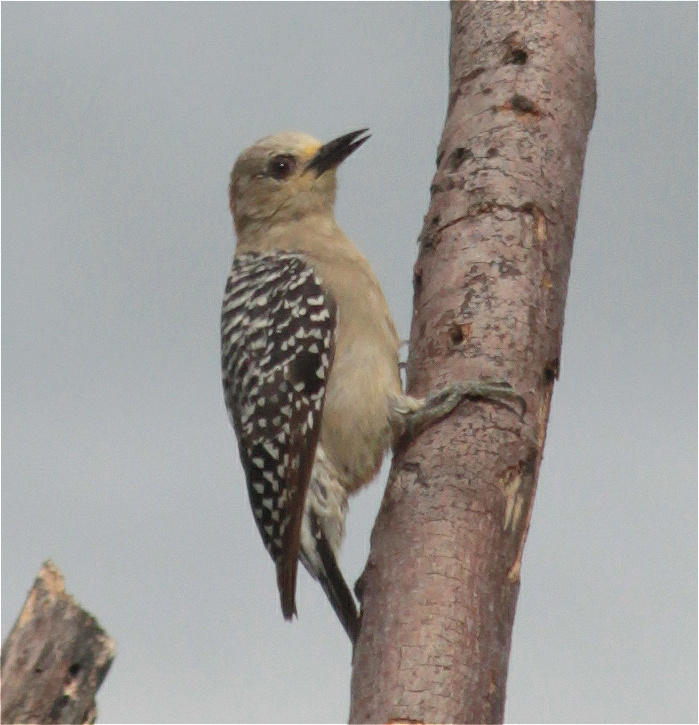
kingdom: Animalia
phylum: Chordata
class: Aves
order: Piciformes
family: Picidae
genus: Melanerpes
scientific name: Melanerpes rubricapillus
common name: Red-crowned woodpecker
